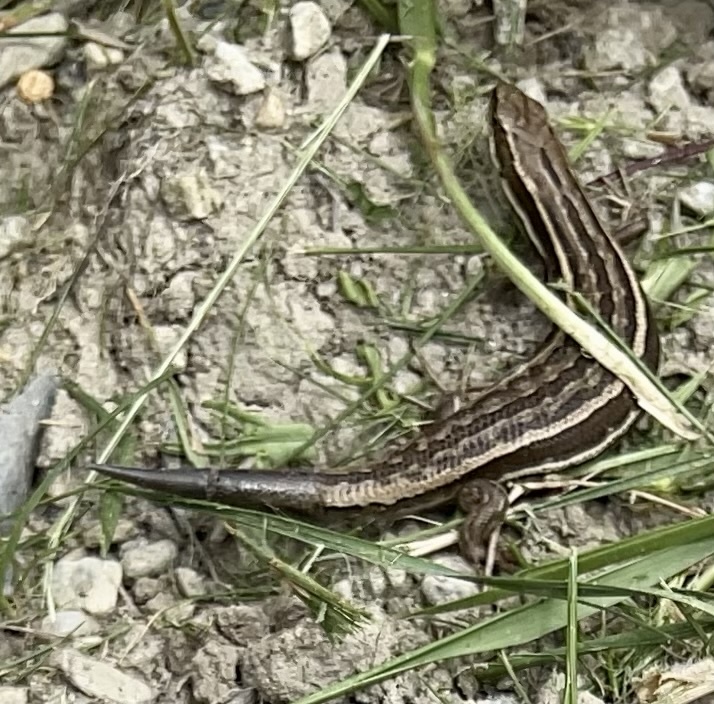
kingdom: Animalia
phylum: Chordata
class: Squamata
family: Scincidae
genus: Oligosoma
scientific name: Oligosoma maccanni
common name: Mccann’s skink
